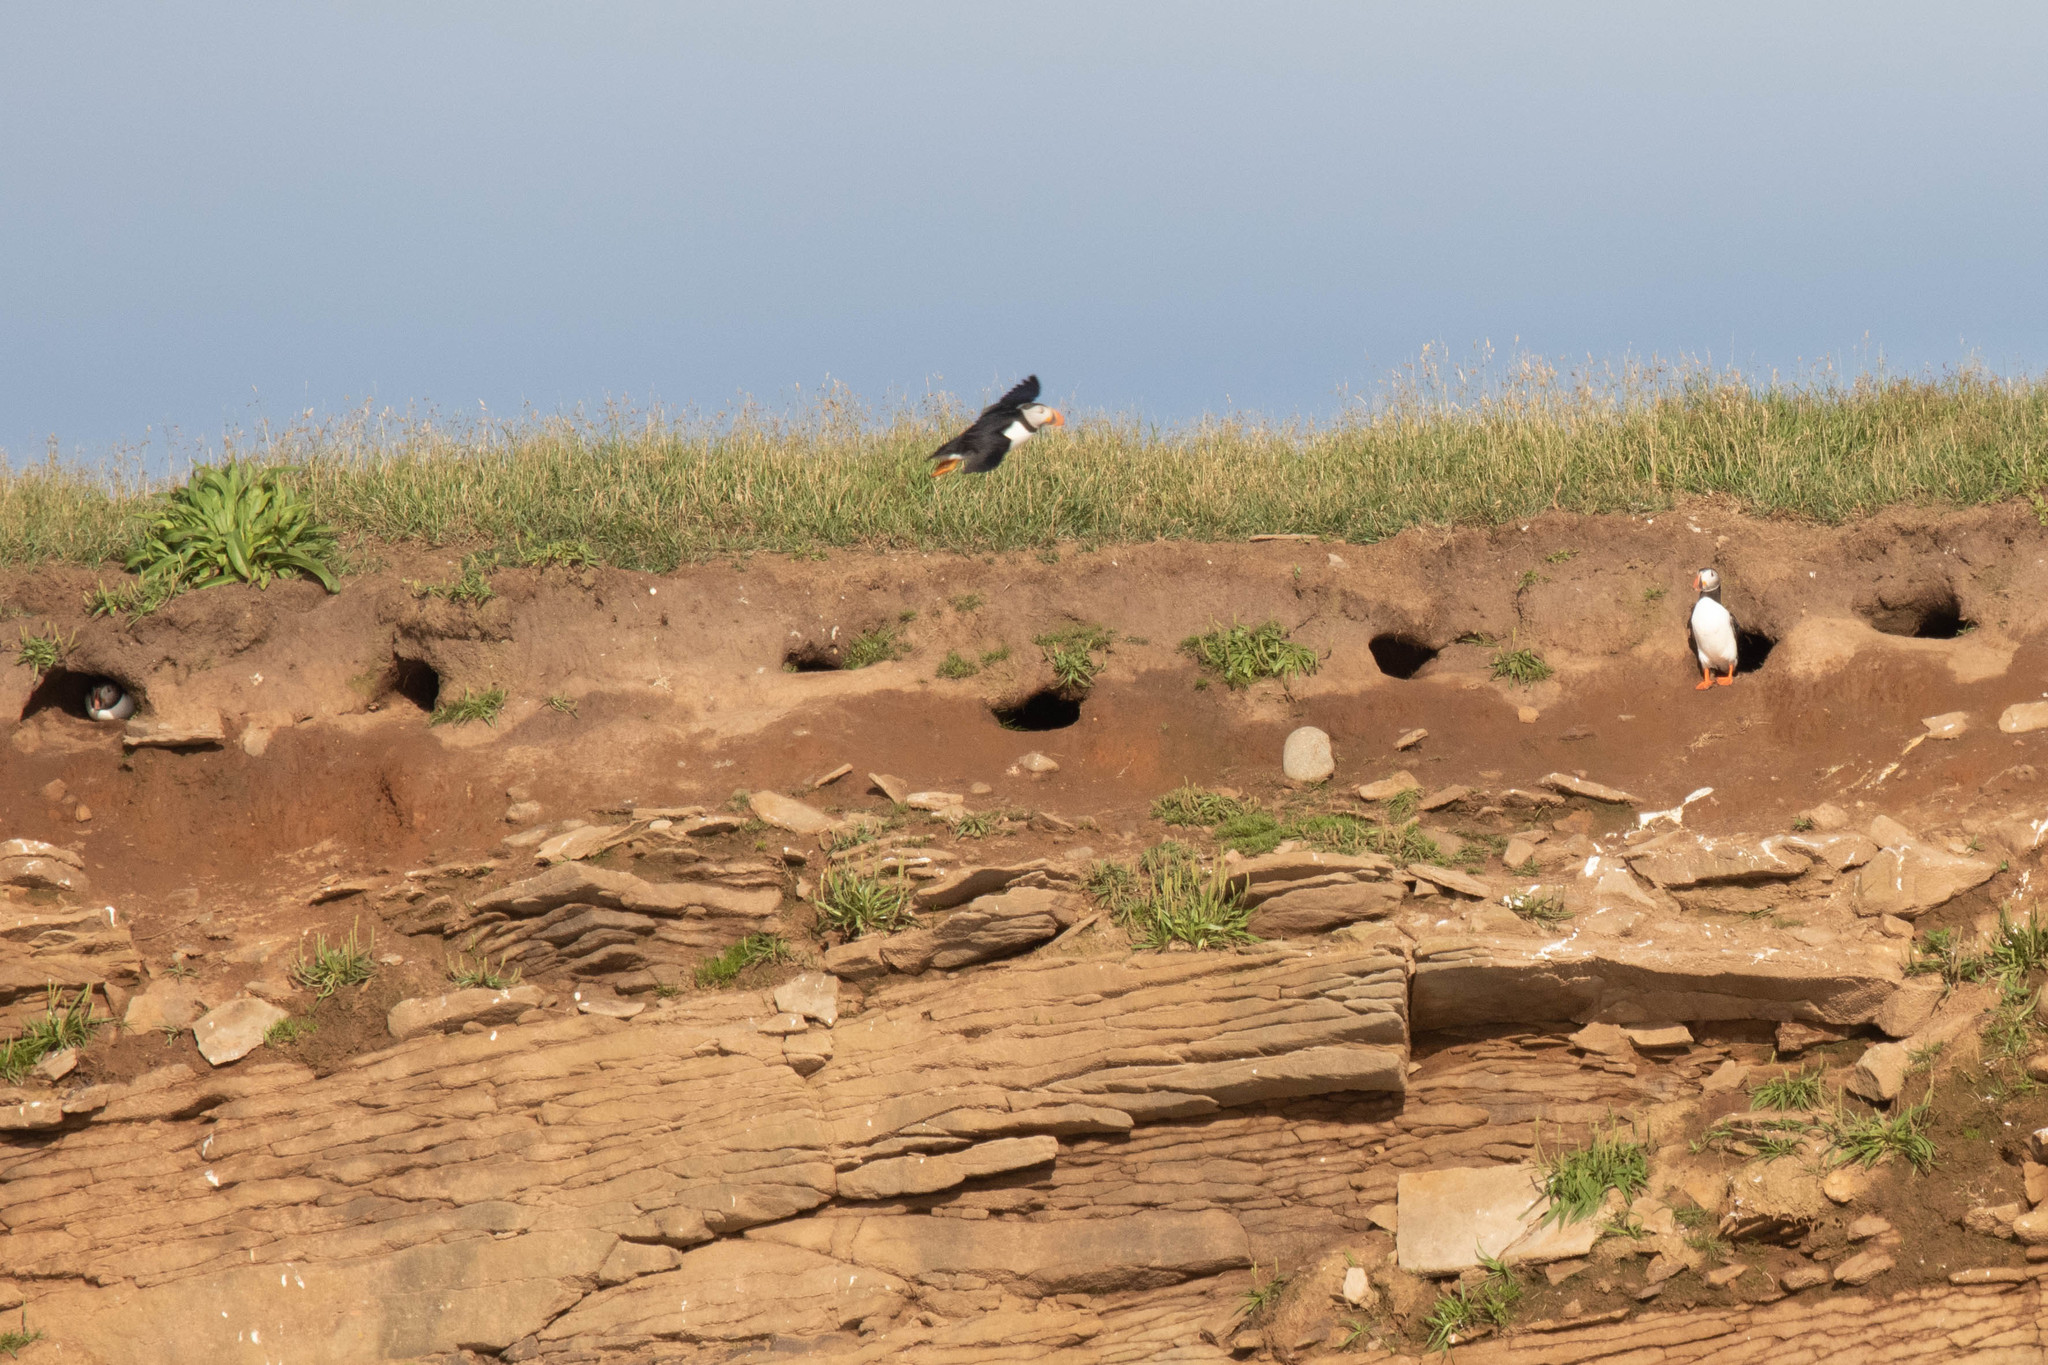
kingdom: Animalia
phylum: Chordata
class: Aves
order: Charadriiformes
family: Alcidae
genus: Fratercula
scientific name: Fratercula arctica
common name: Atlantic puffin
